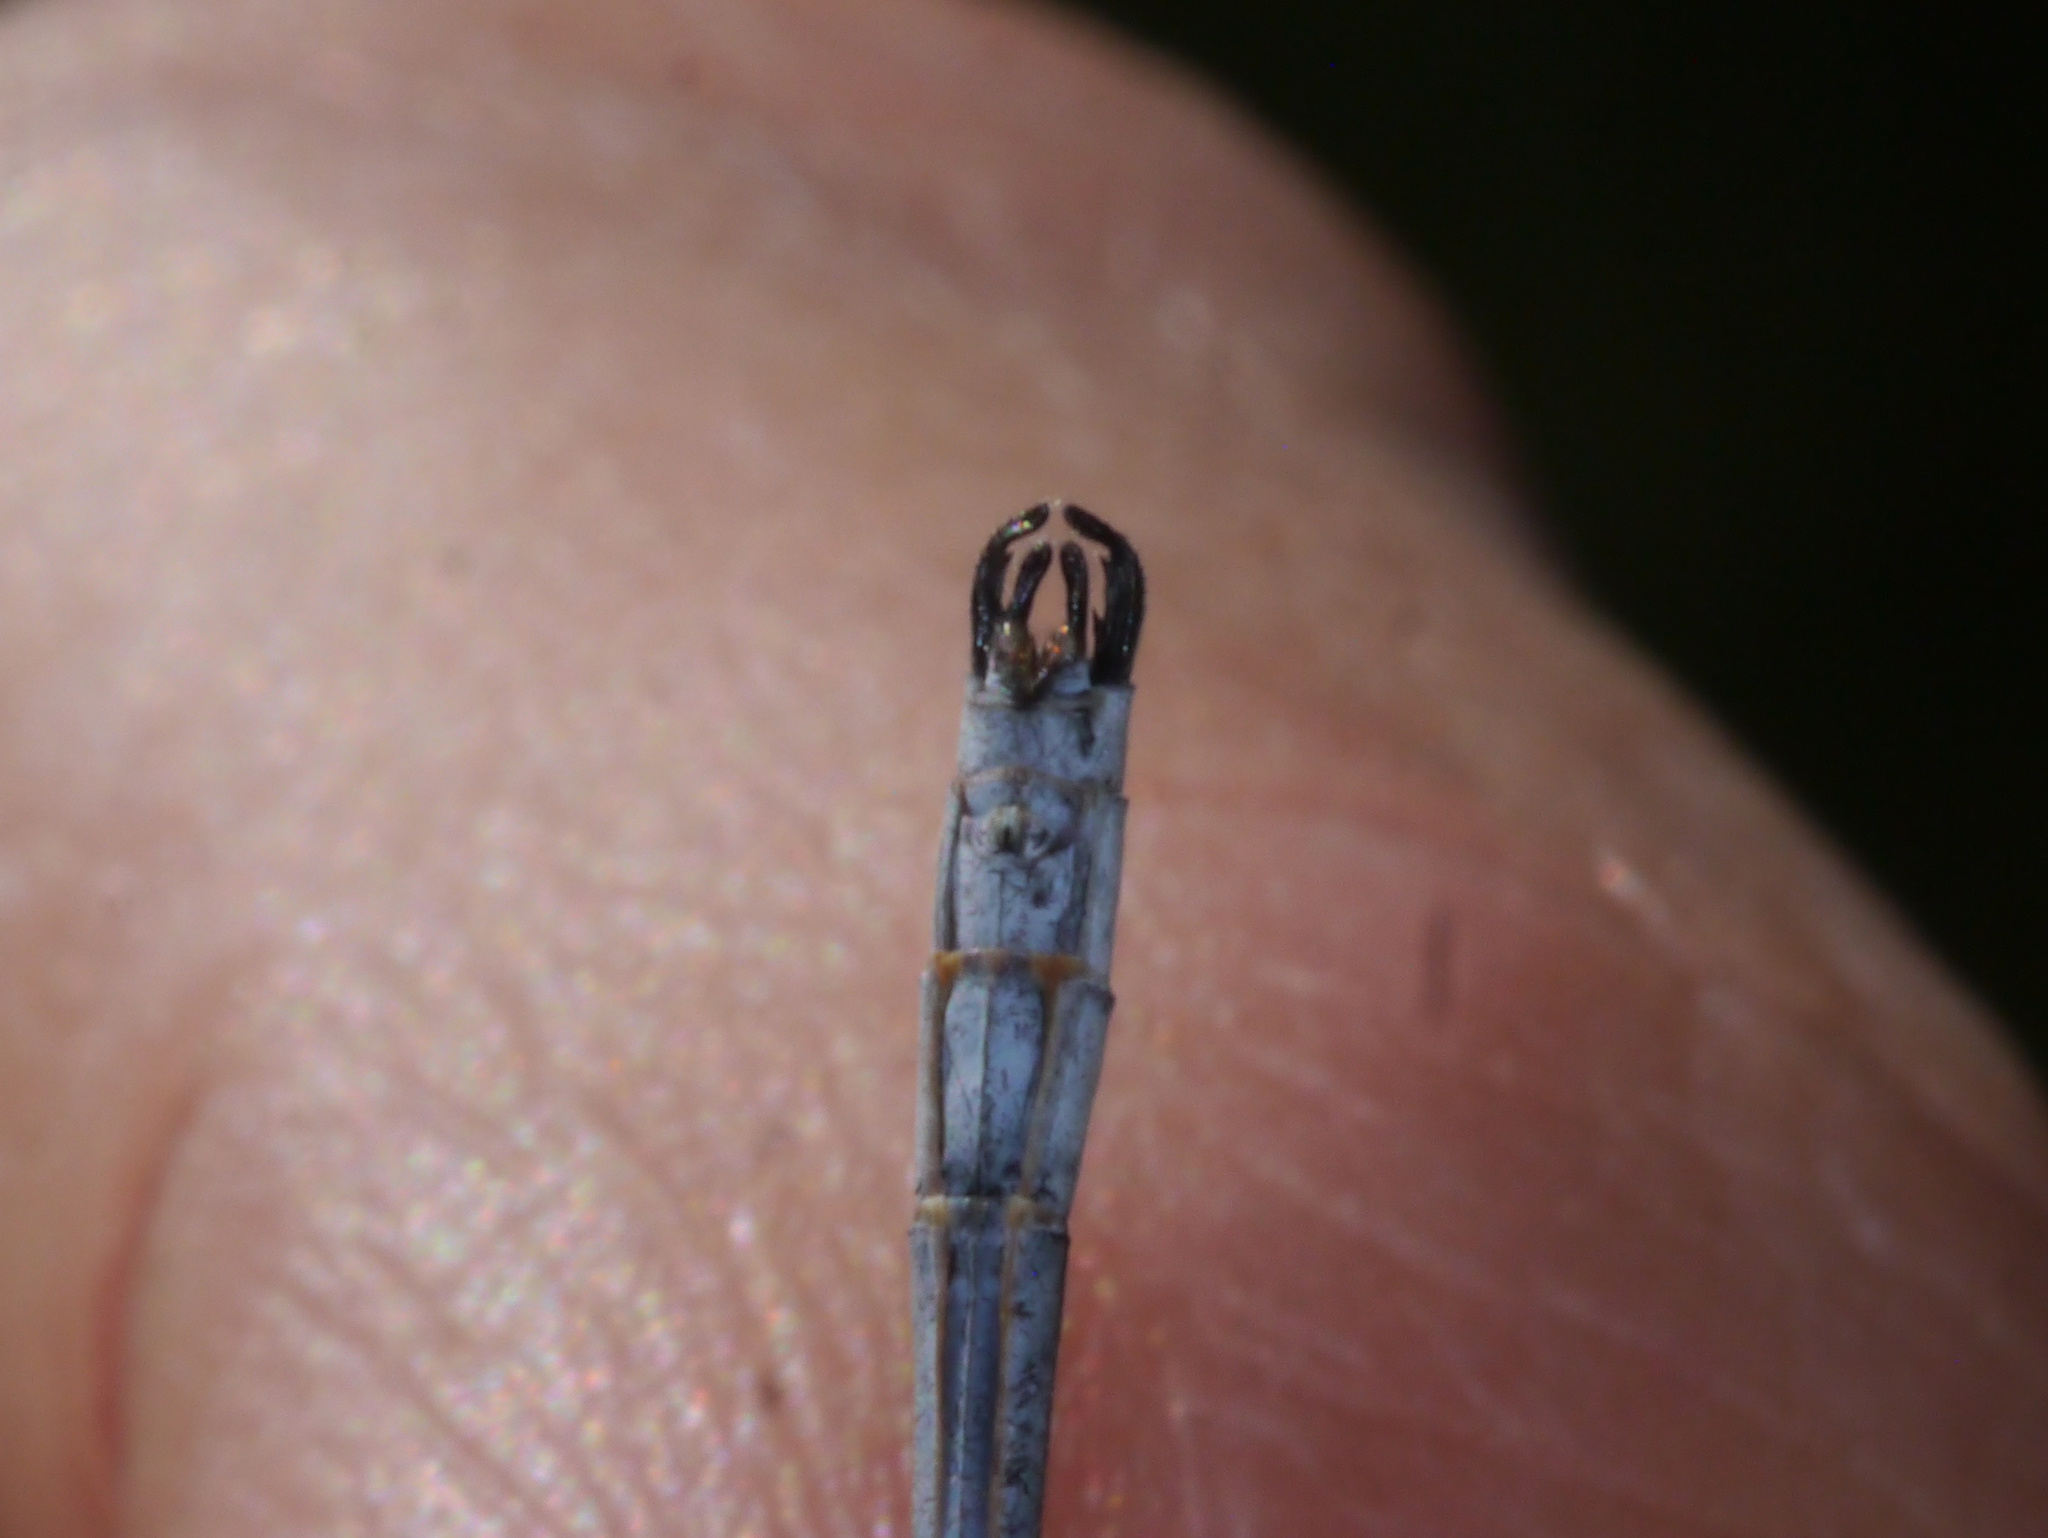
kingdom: Animalia
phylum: Arthropoda
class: Insecta
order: Odonata
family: Lestidae
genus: Lestes
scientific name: Lestes disjunctus
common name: Northern spreadwing
